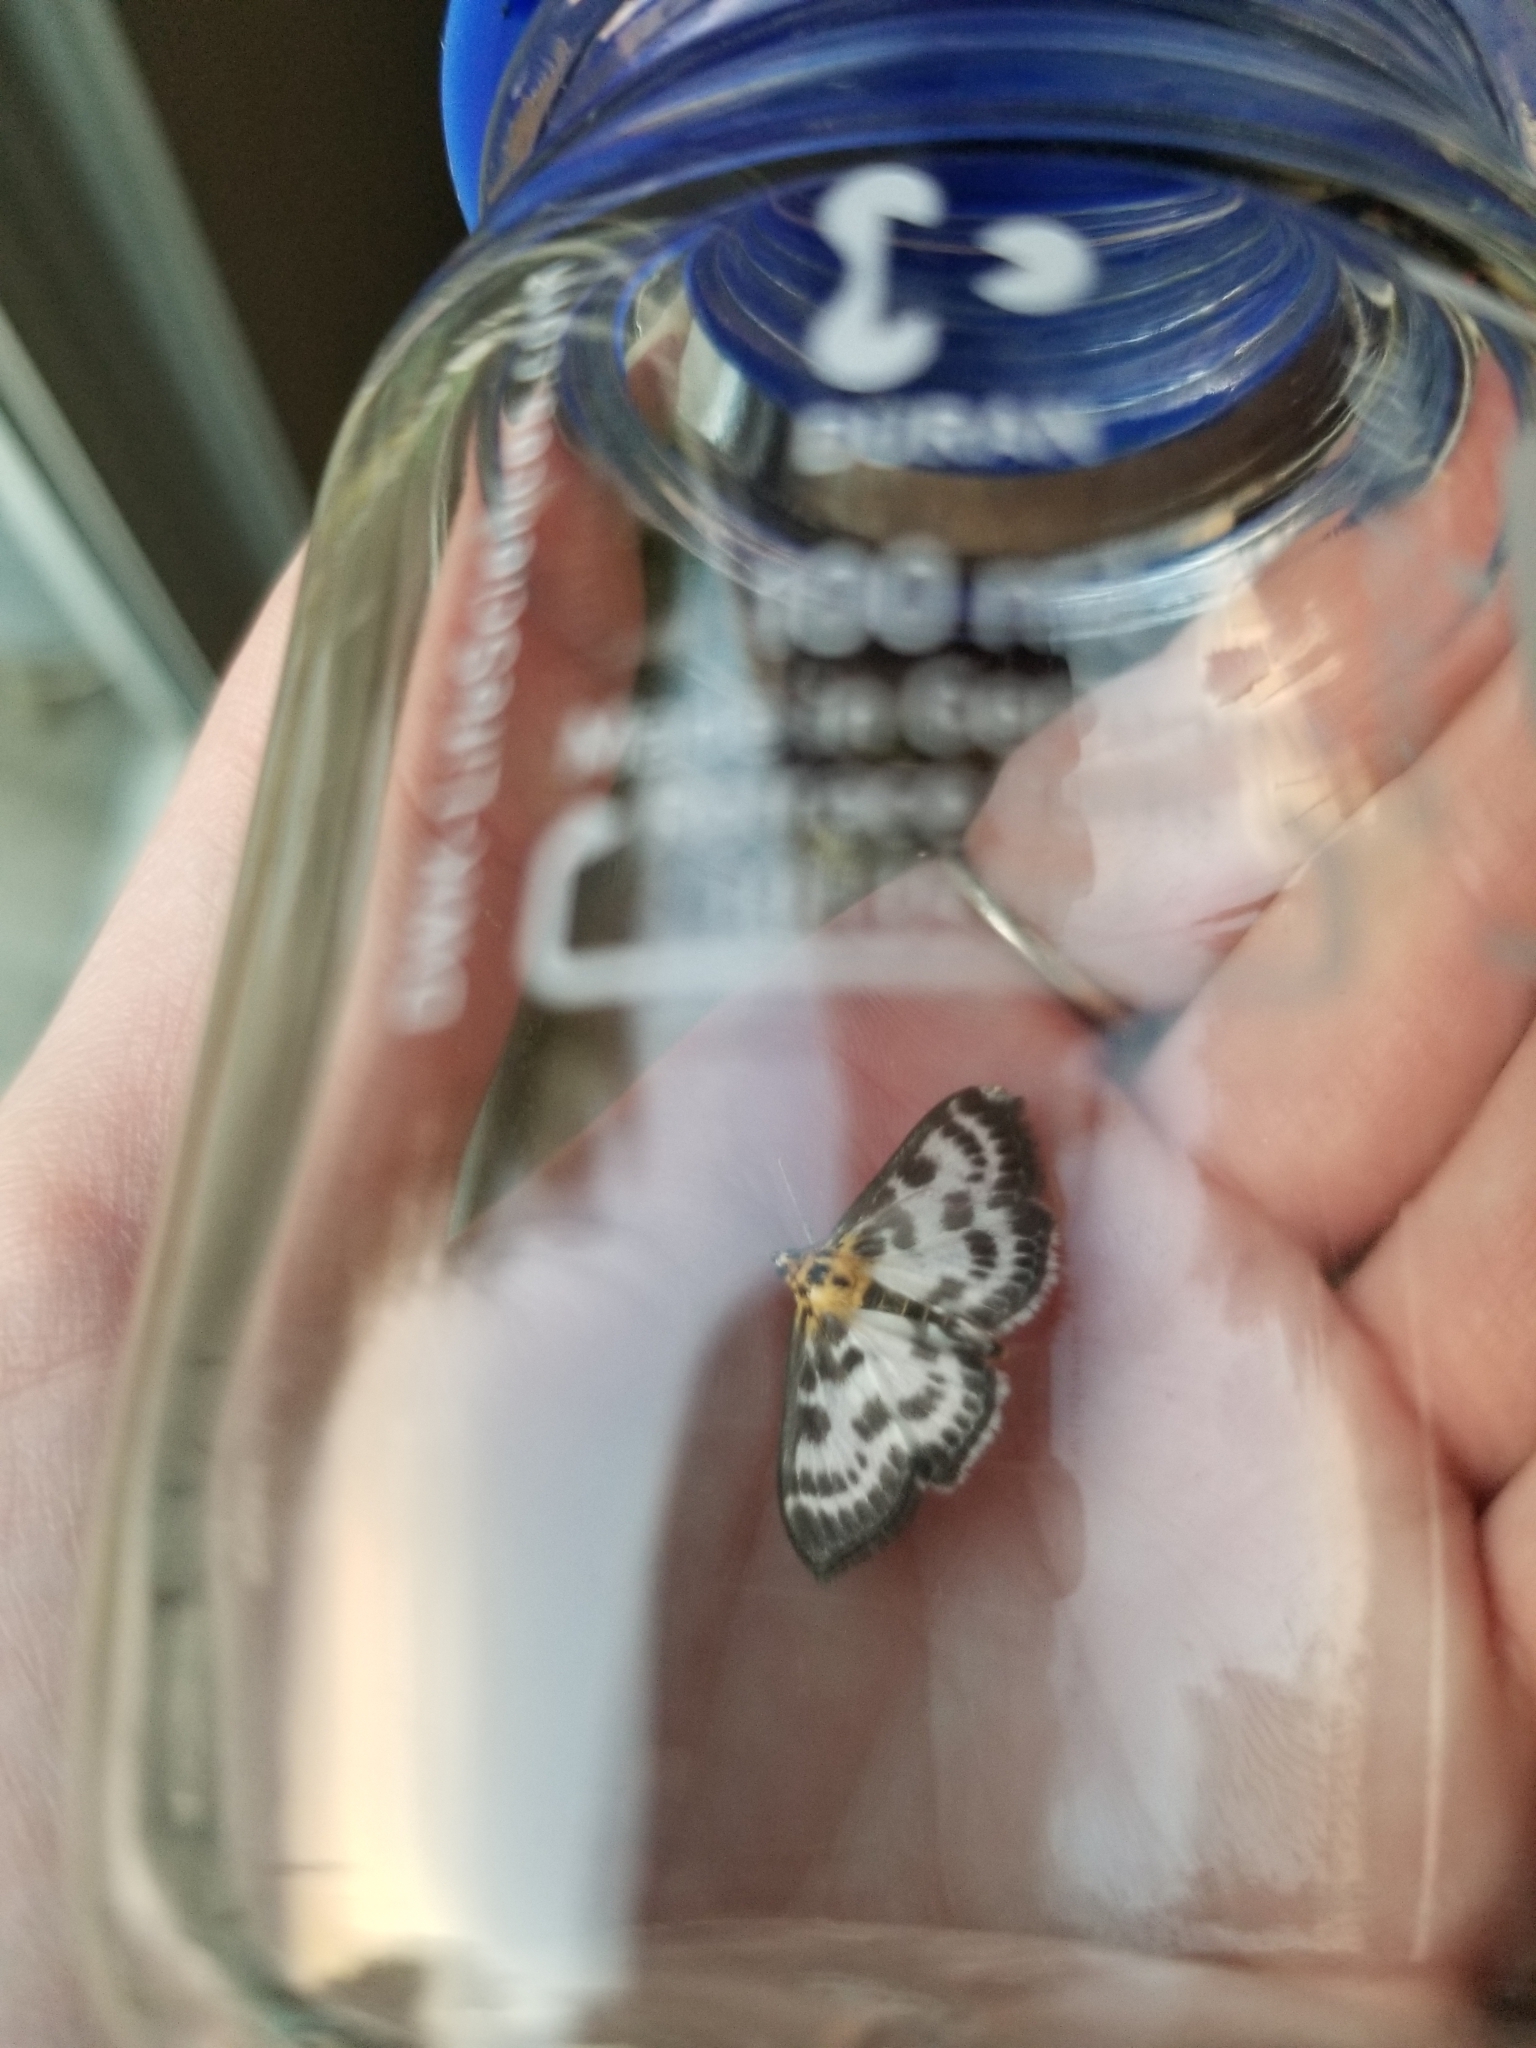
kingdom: Animalia
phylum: Arthropoda
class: Insecta
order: Lepidoptera
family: Crambidae
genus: Anania
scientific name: Anania hortulata
